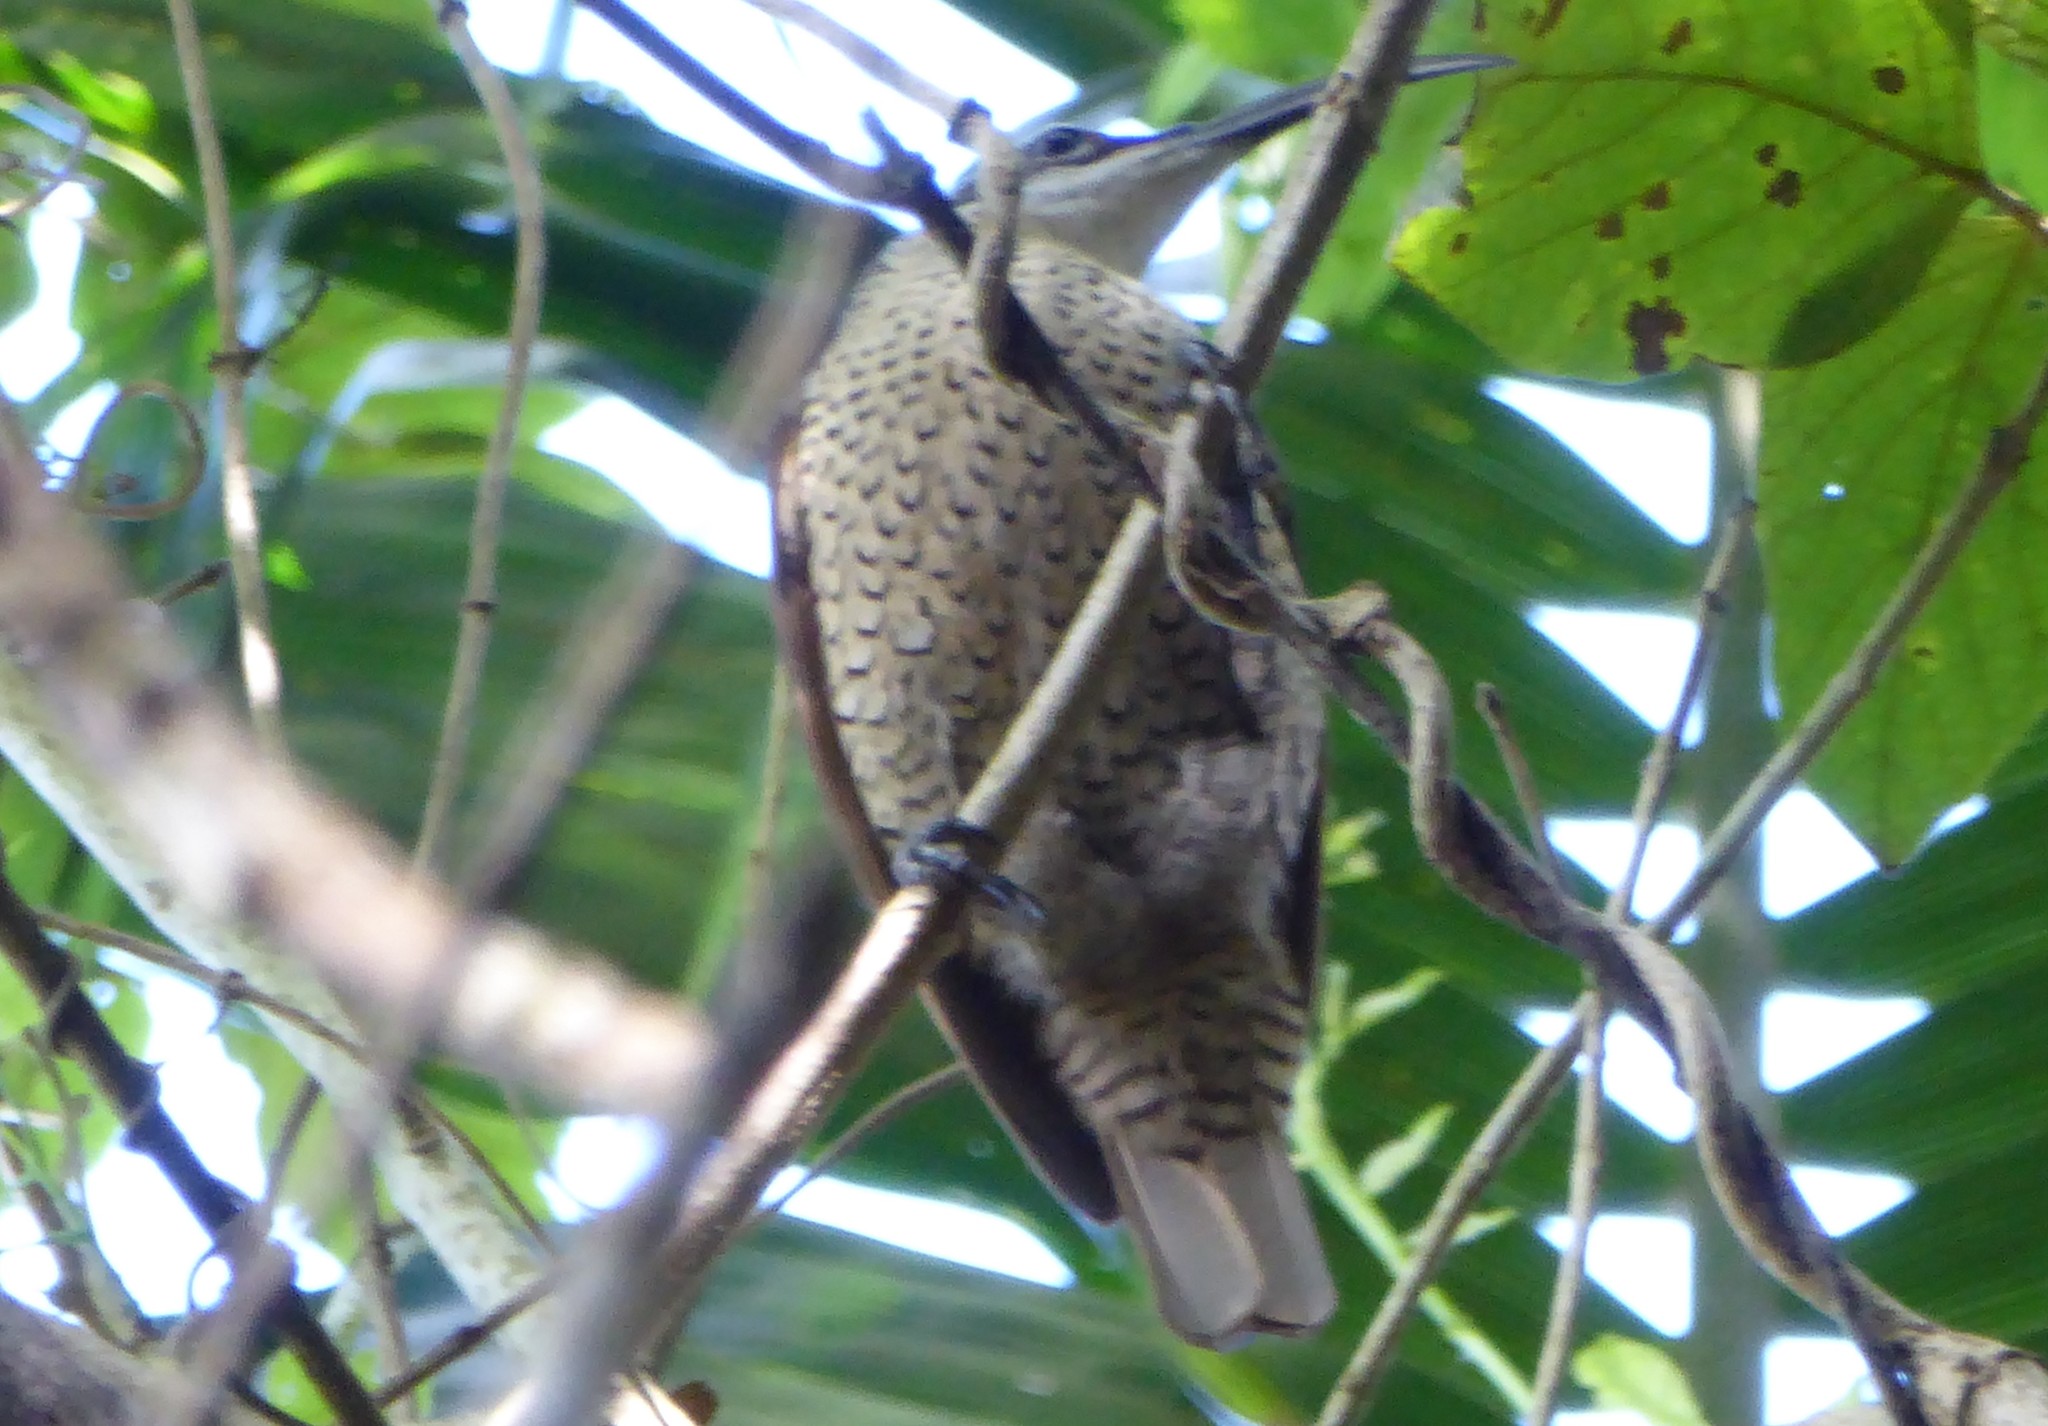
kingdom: Animalia
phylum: Chordata
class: Aves
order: Passeriformes
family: Paradisaeidae
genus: Ptiloris
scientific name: Ptiloris paradiseus
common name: Paradise riflebird
